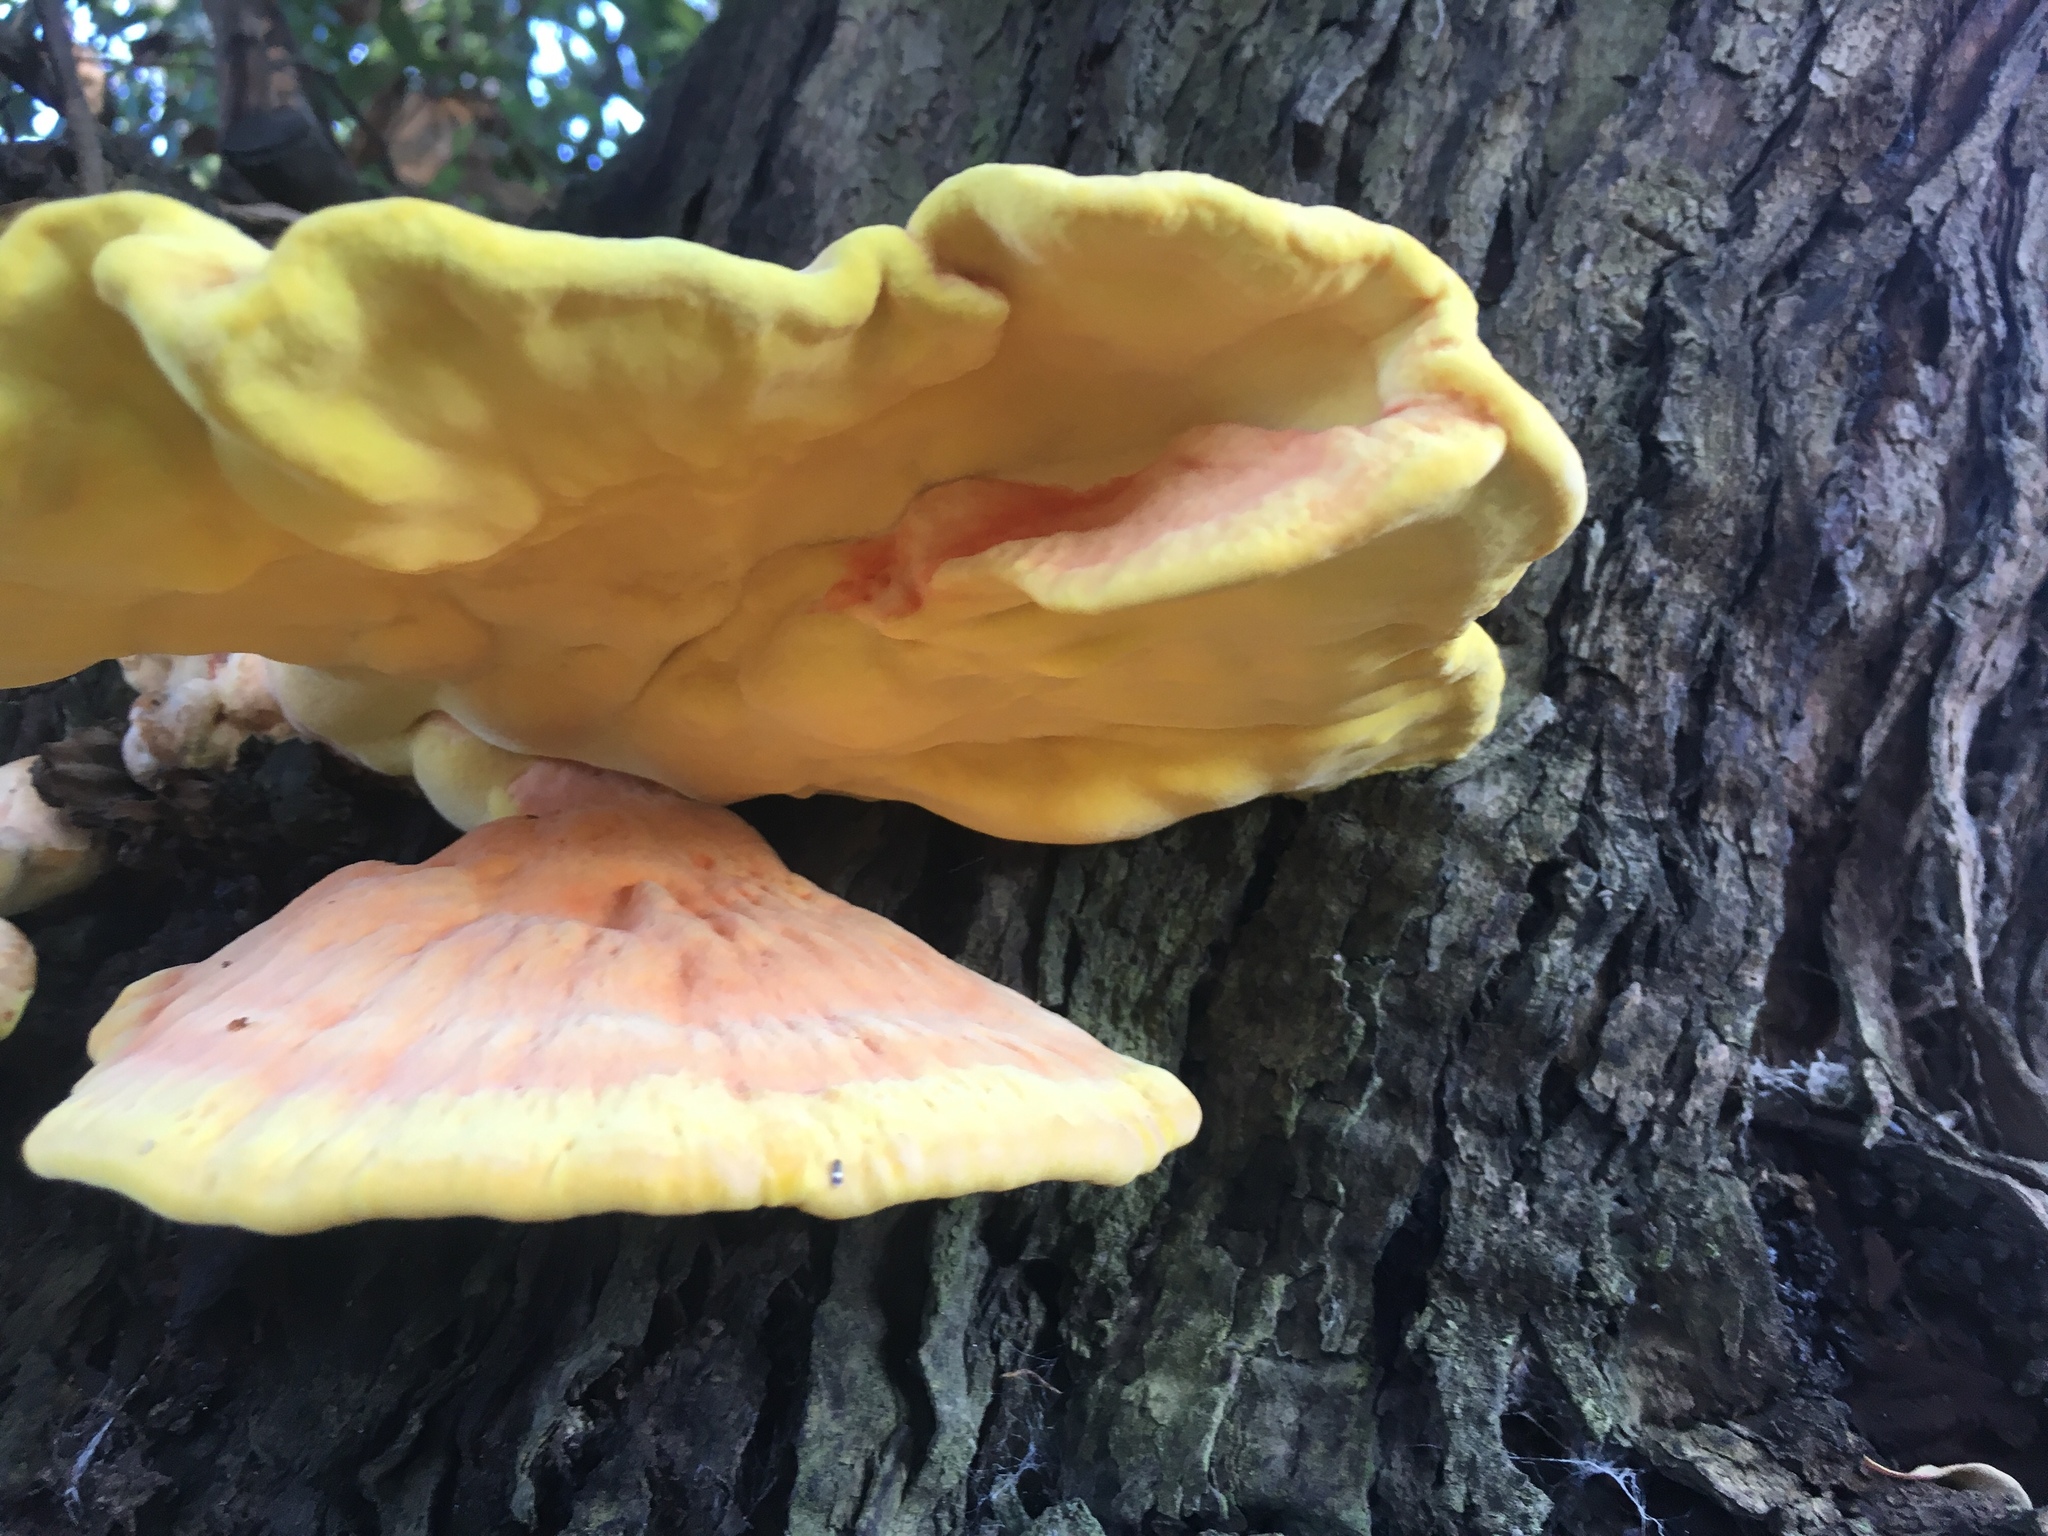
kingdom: Fungi
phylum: Basidiomycota
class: Agaricomycetes
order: Polyporales
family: Laetiporaceae
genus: Laetiporus
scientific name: Laetiporus gilbertsonii
